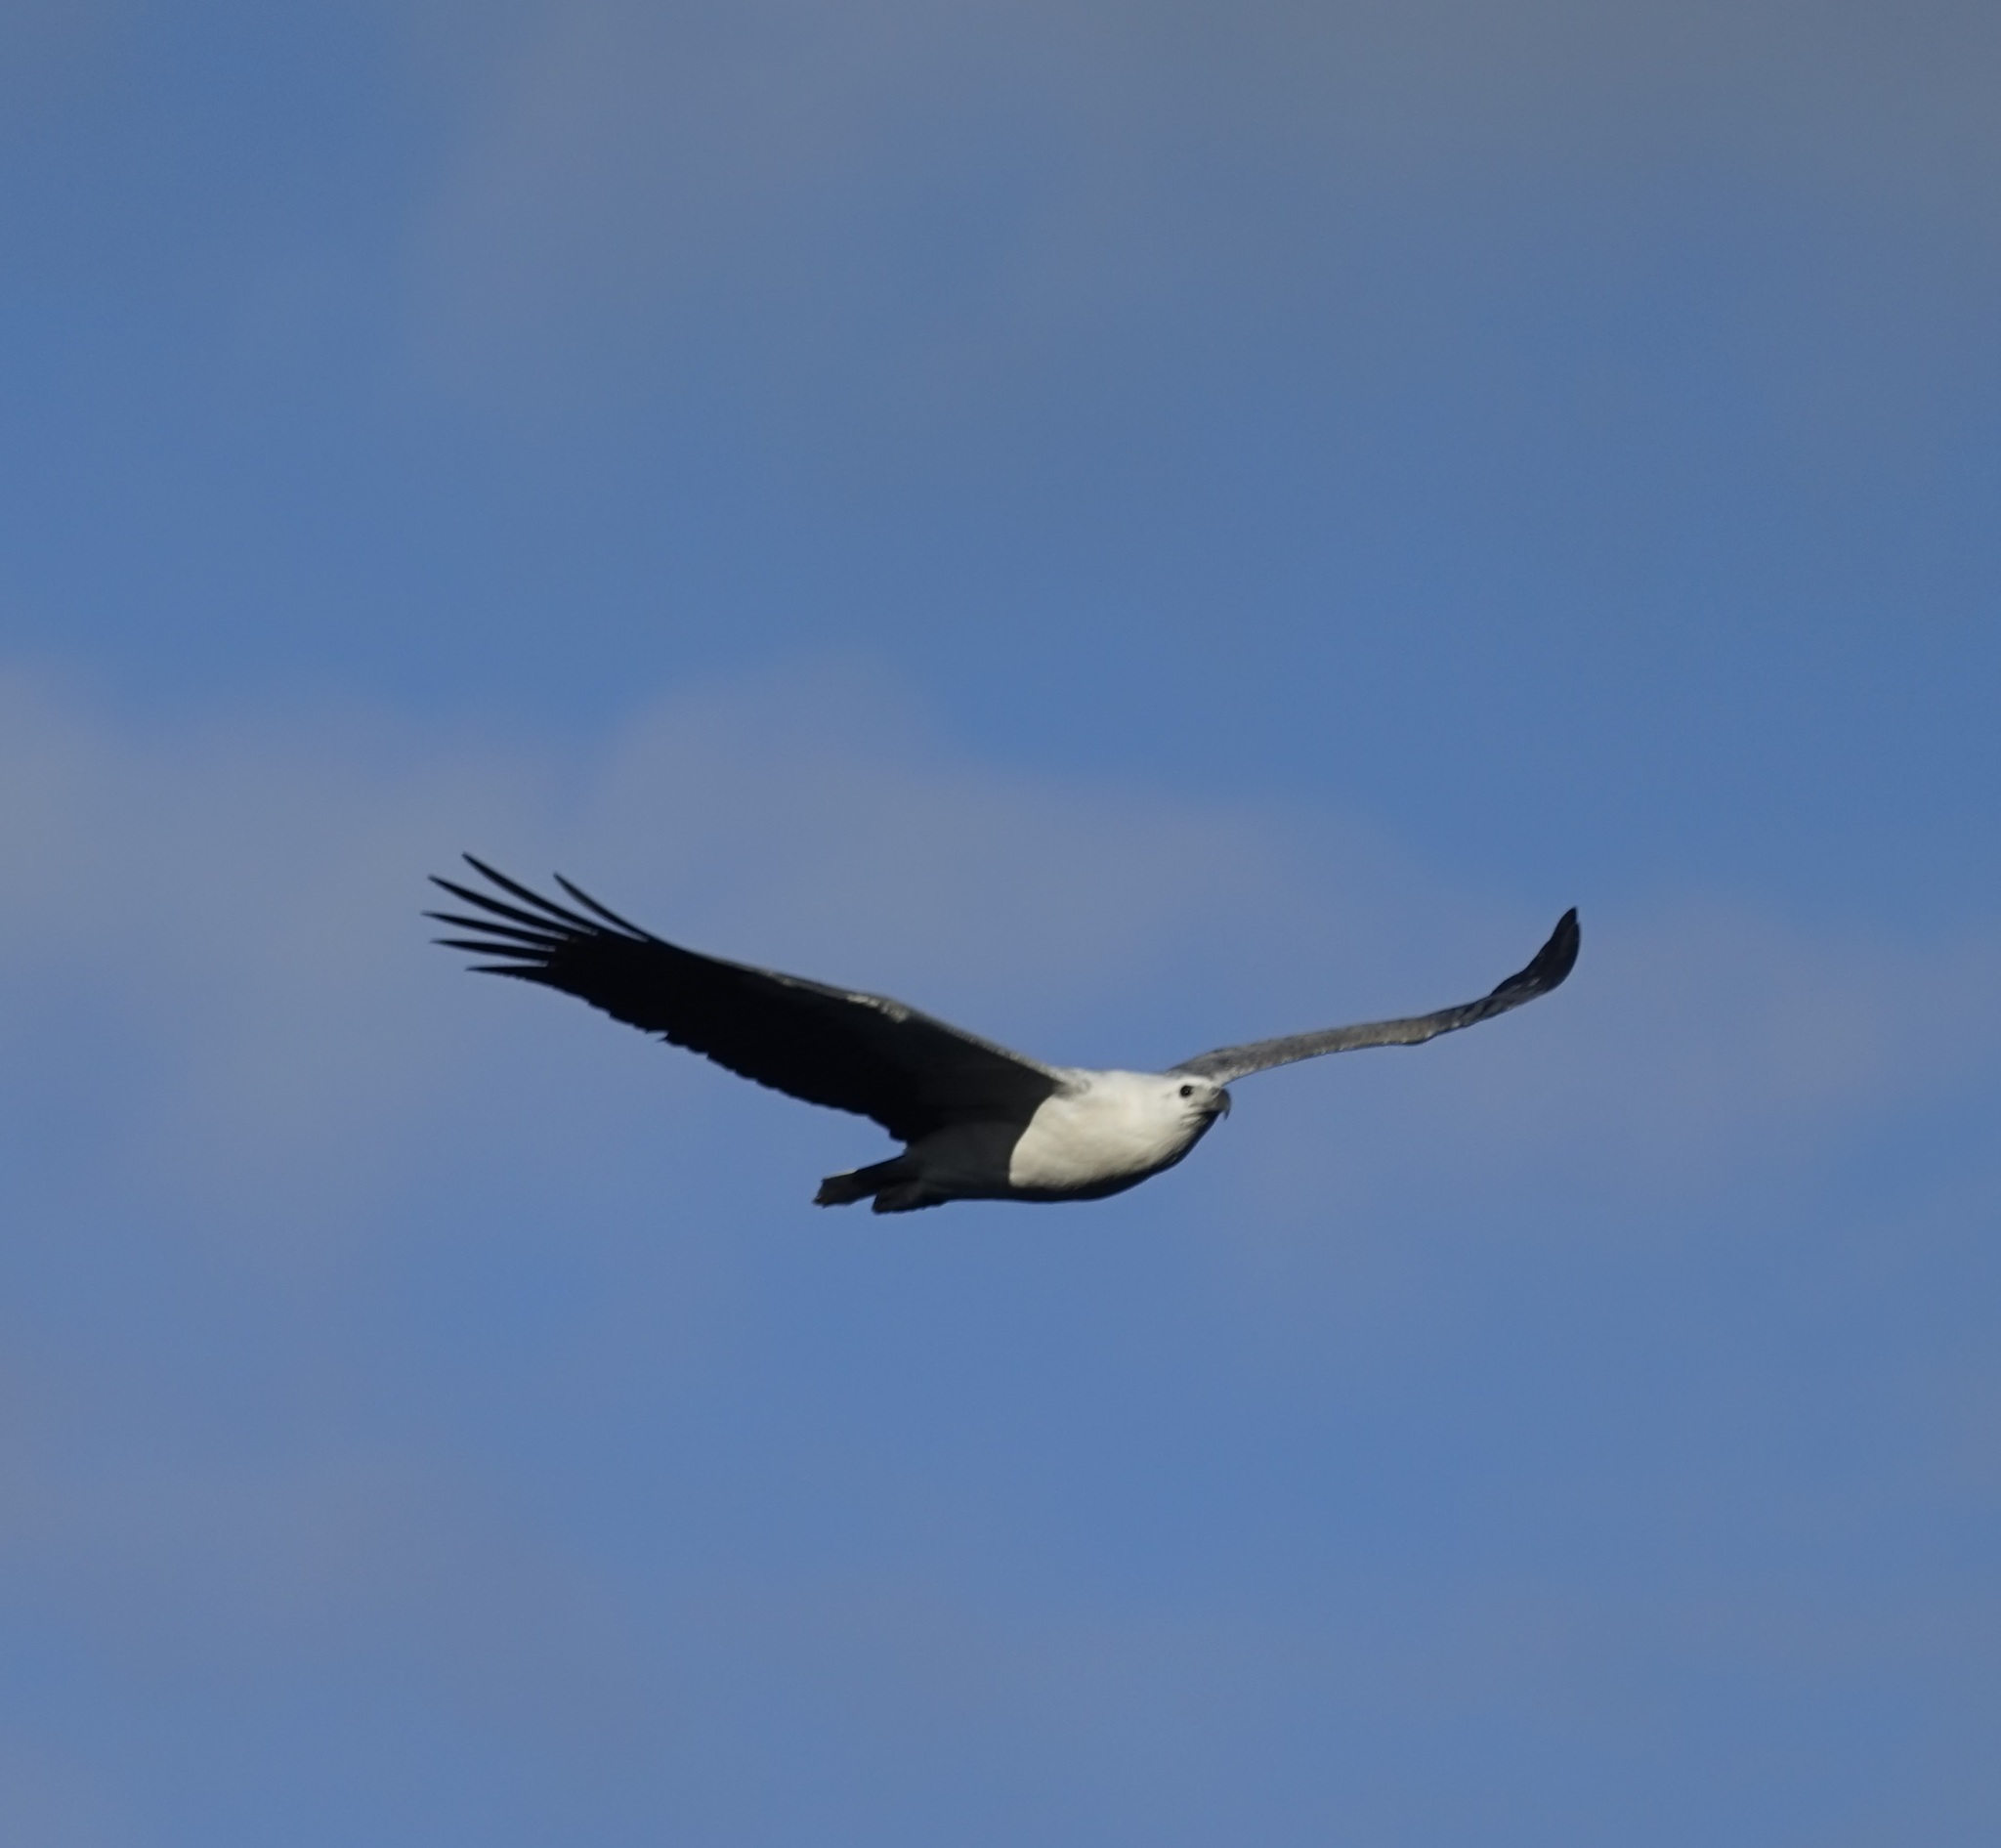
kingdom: Animalia
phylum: Chordata
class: Aves
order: Accipitriformes
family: Accipitridae
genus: Haliaeetus
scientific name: Haliaeetus leucogaster
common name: White-bellied sea eagle
